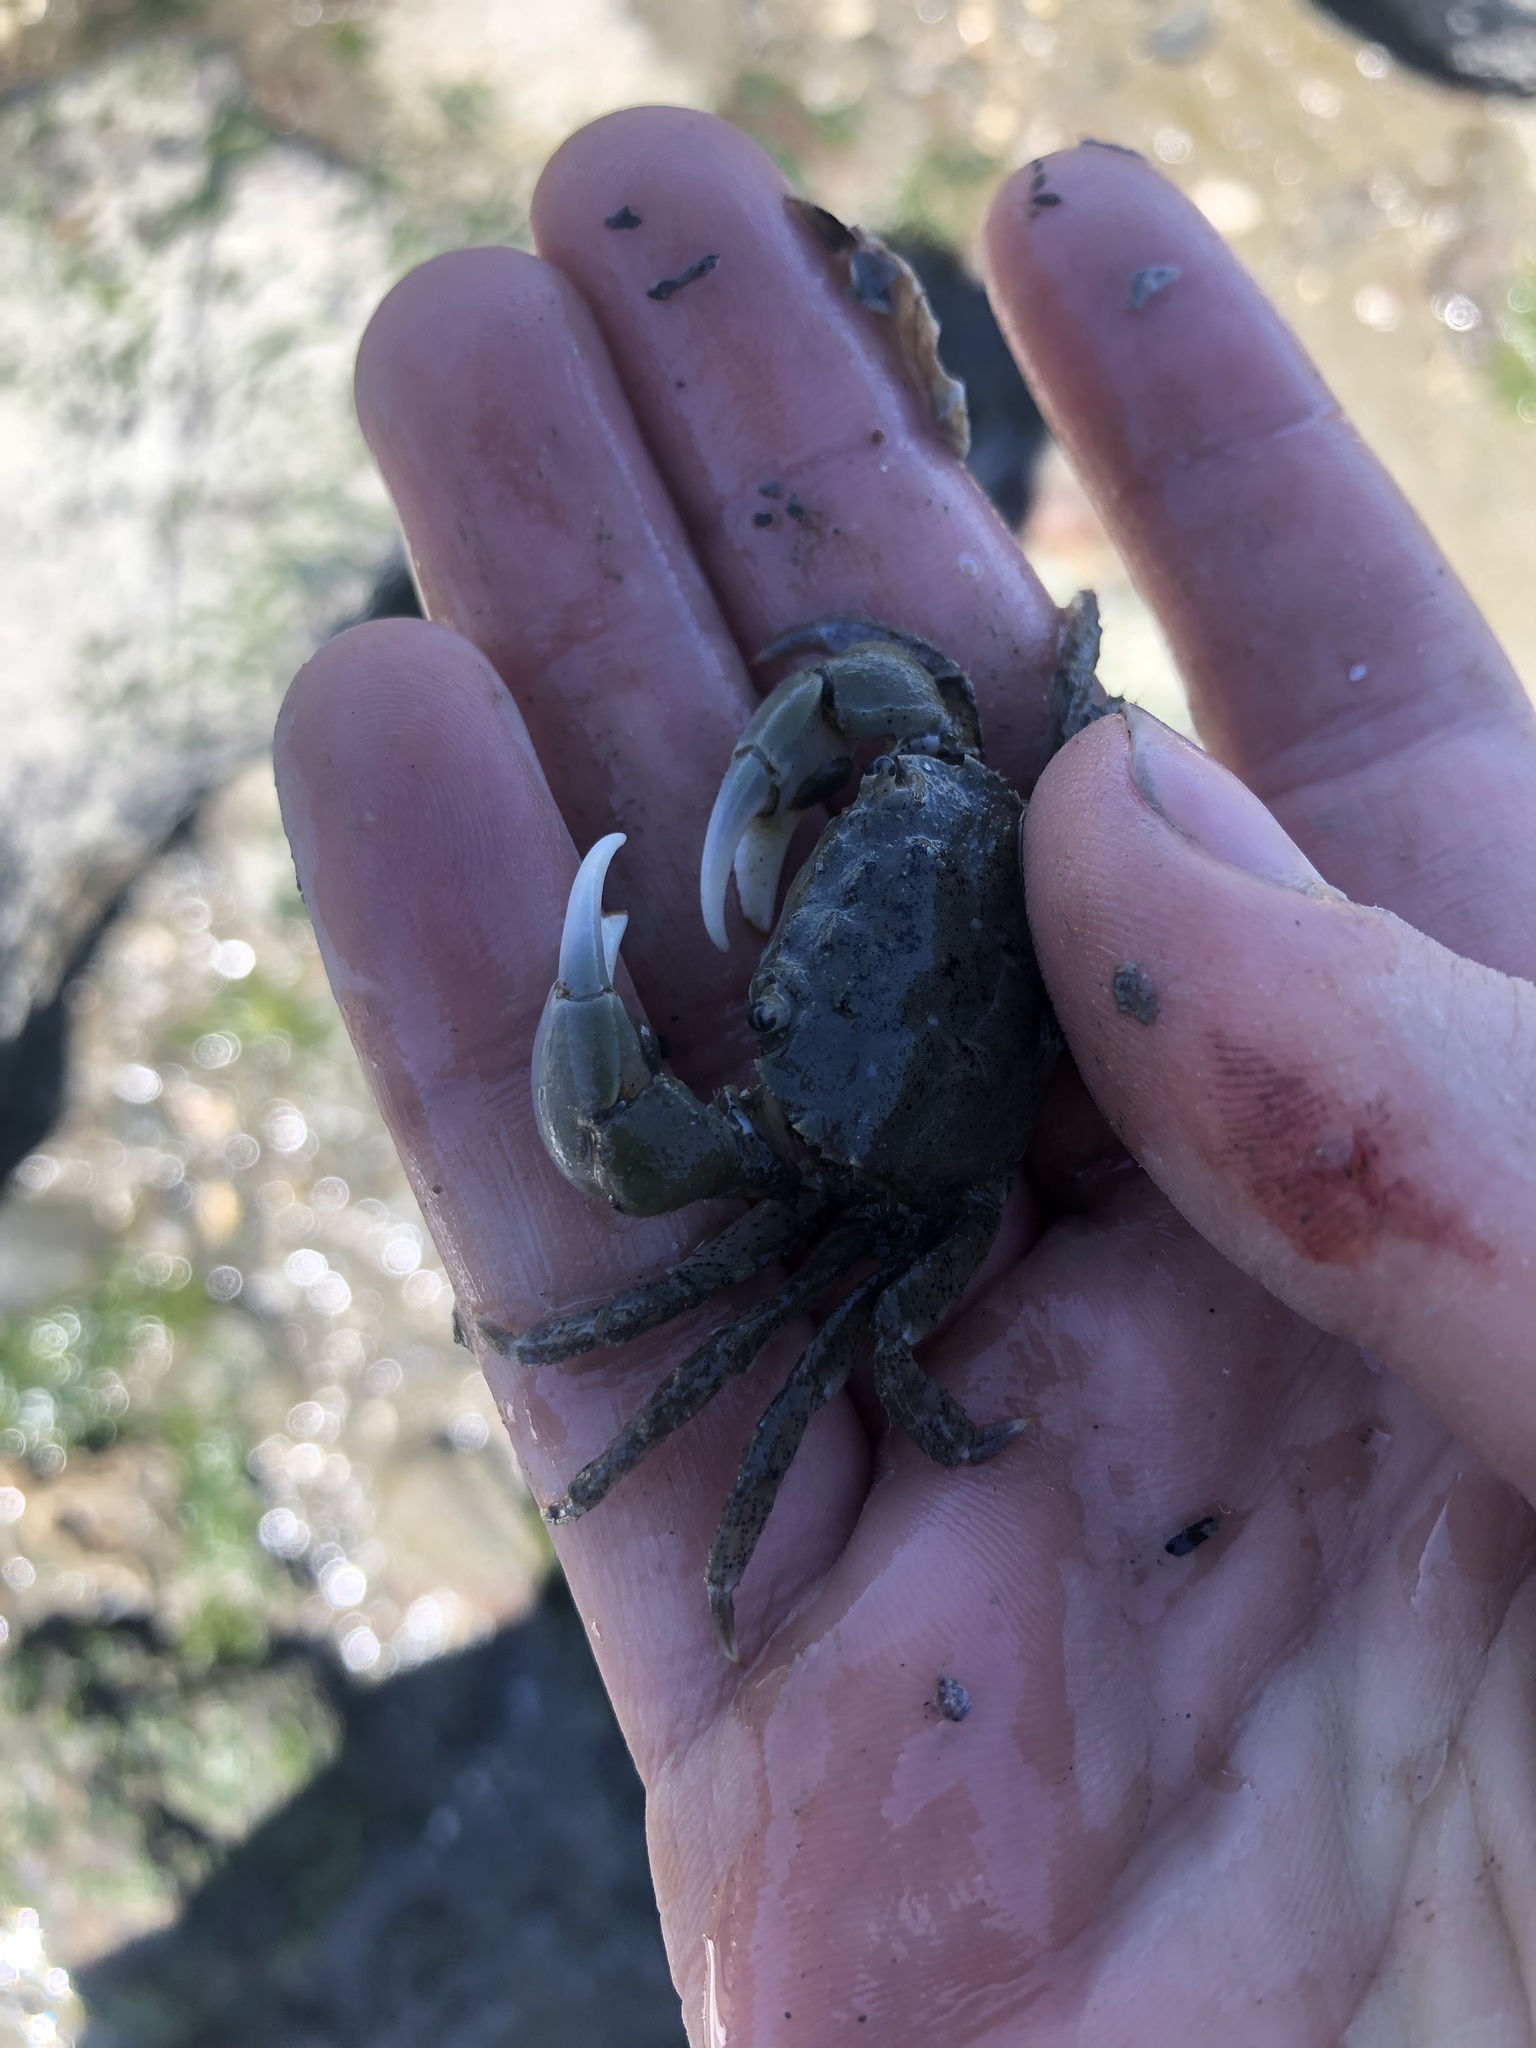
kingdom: Animalia
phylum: Arthropoda
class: Malacostraca
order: Decapoda
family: Varunidae
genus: Hemigrapsus
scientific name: Hemigrapsus oregonensis
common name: Yellow shore crab
